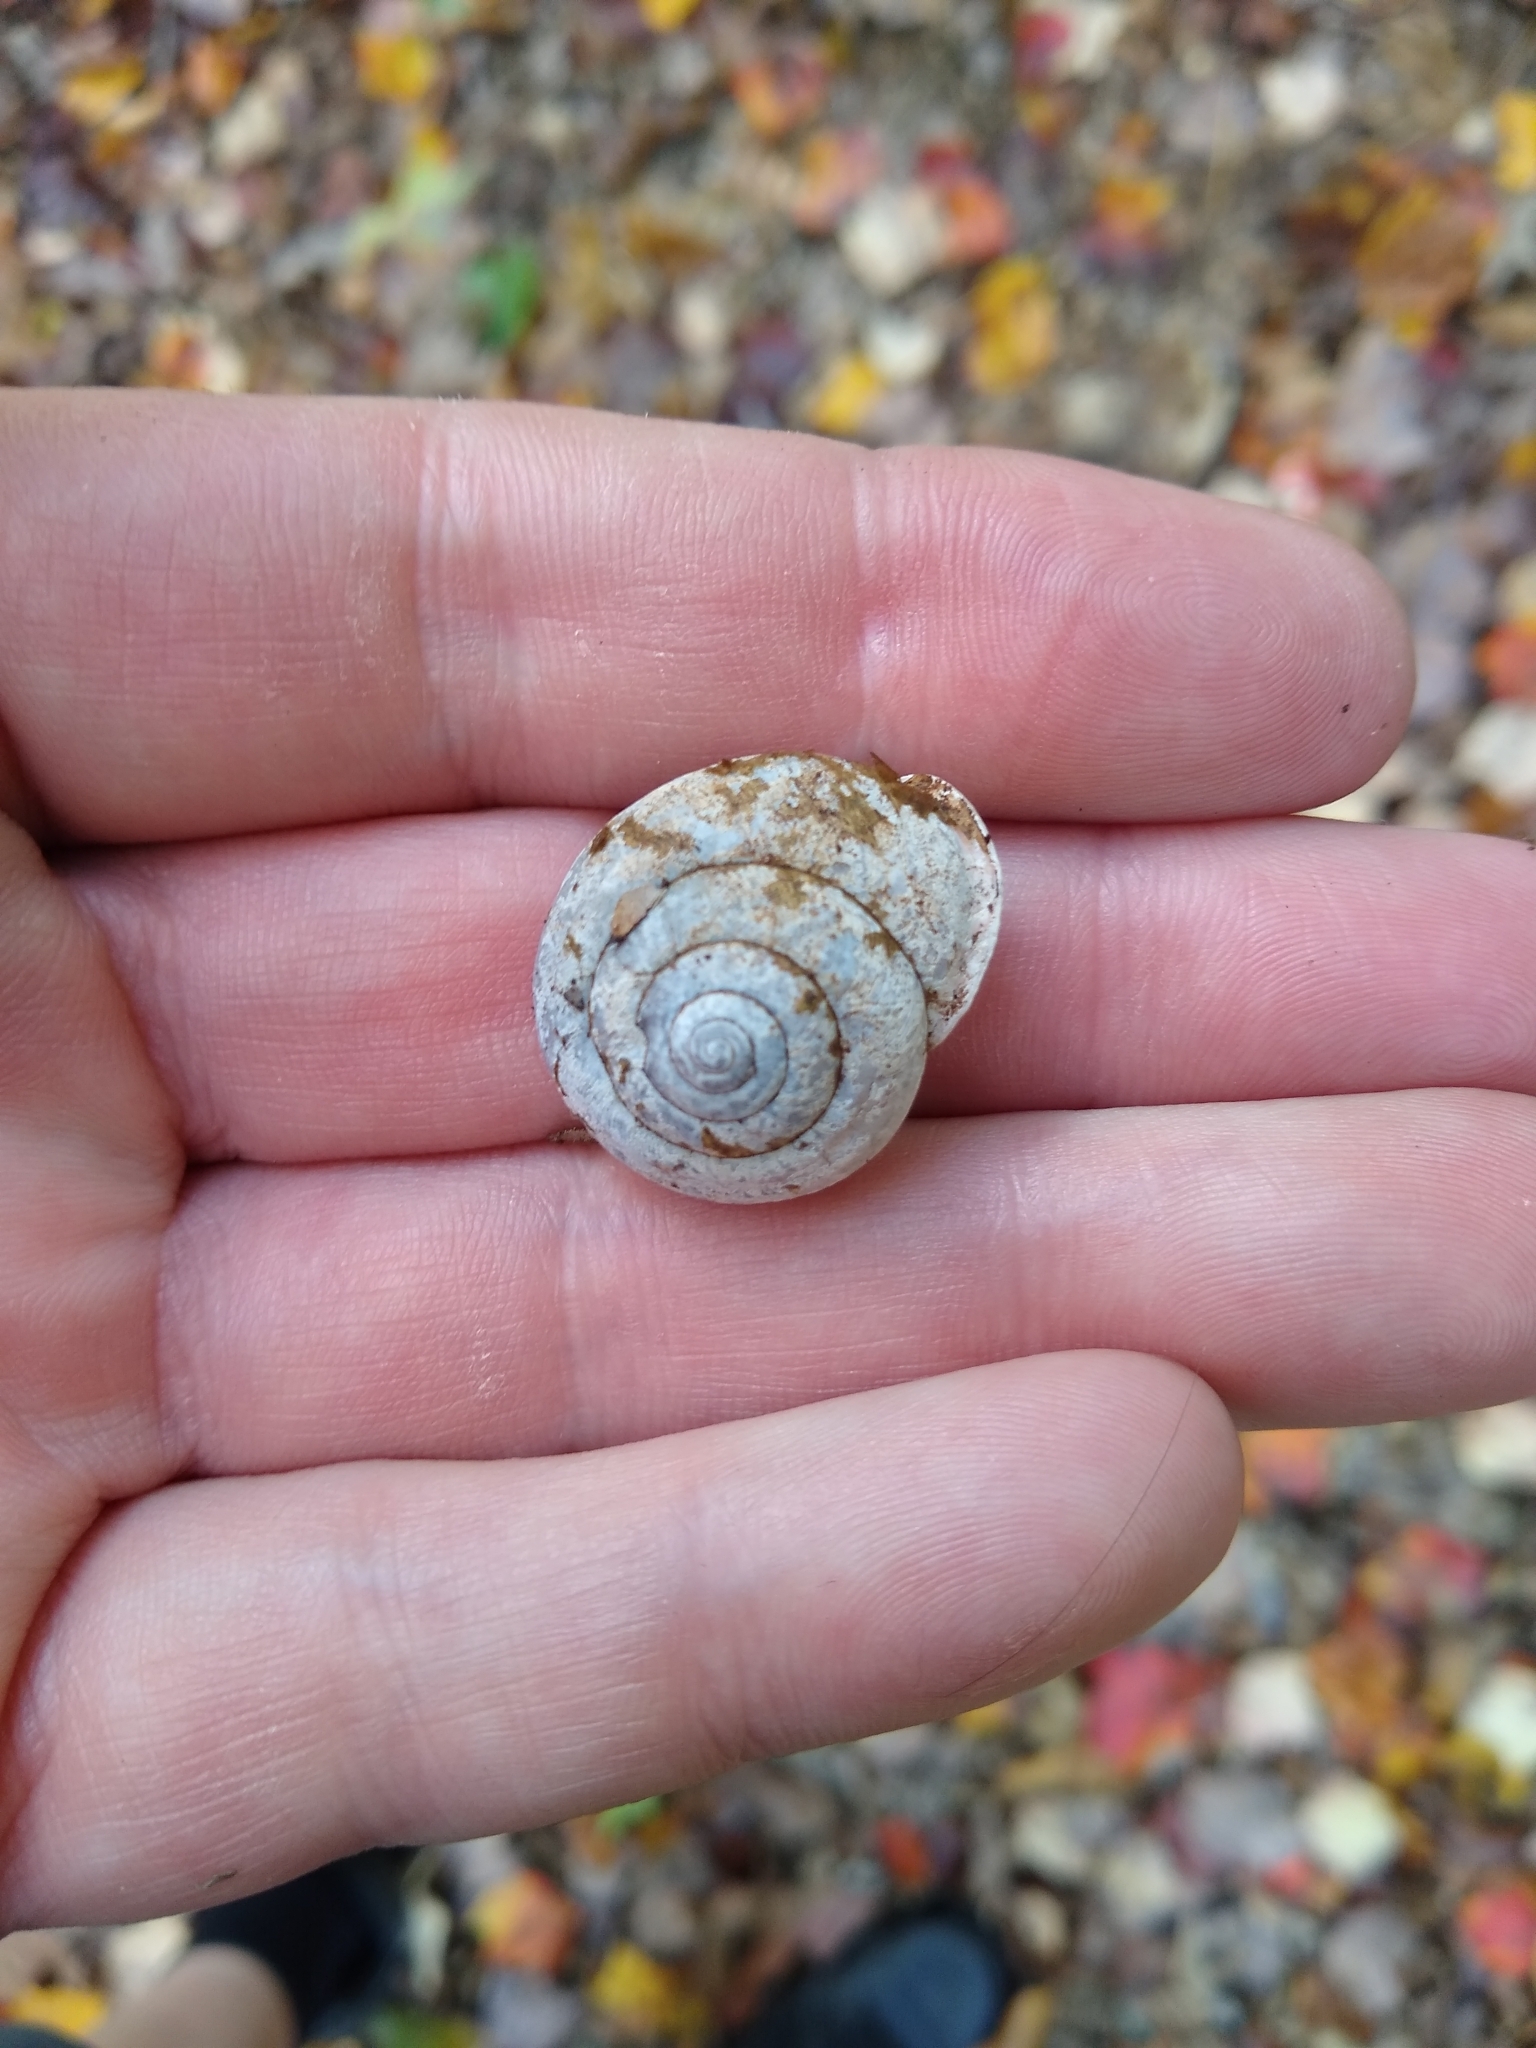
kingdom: Animalia
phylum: Mollusca
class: Gastropoda
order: Stylommatophora
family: Polygyridae
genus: Neohelix
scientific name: Neohelix albolabris
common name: Eastern whitelip
